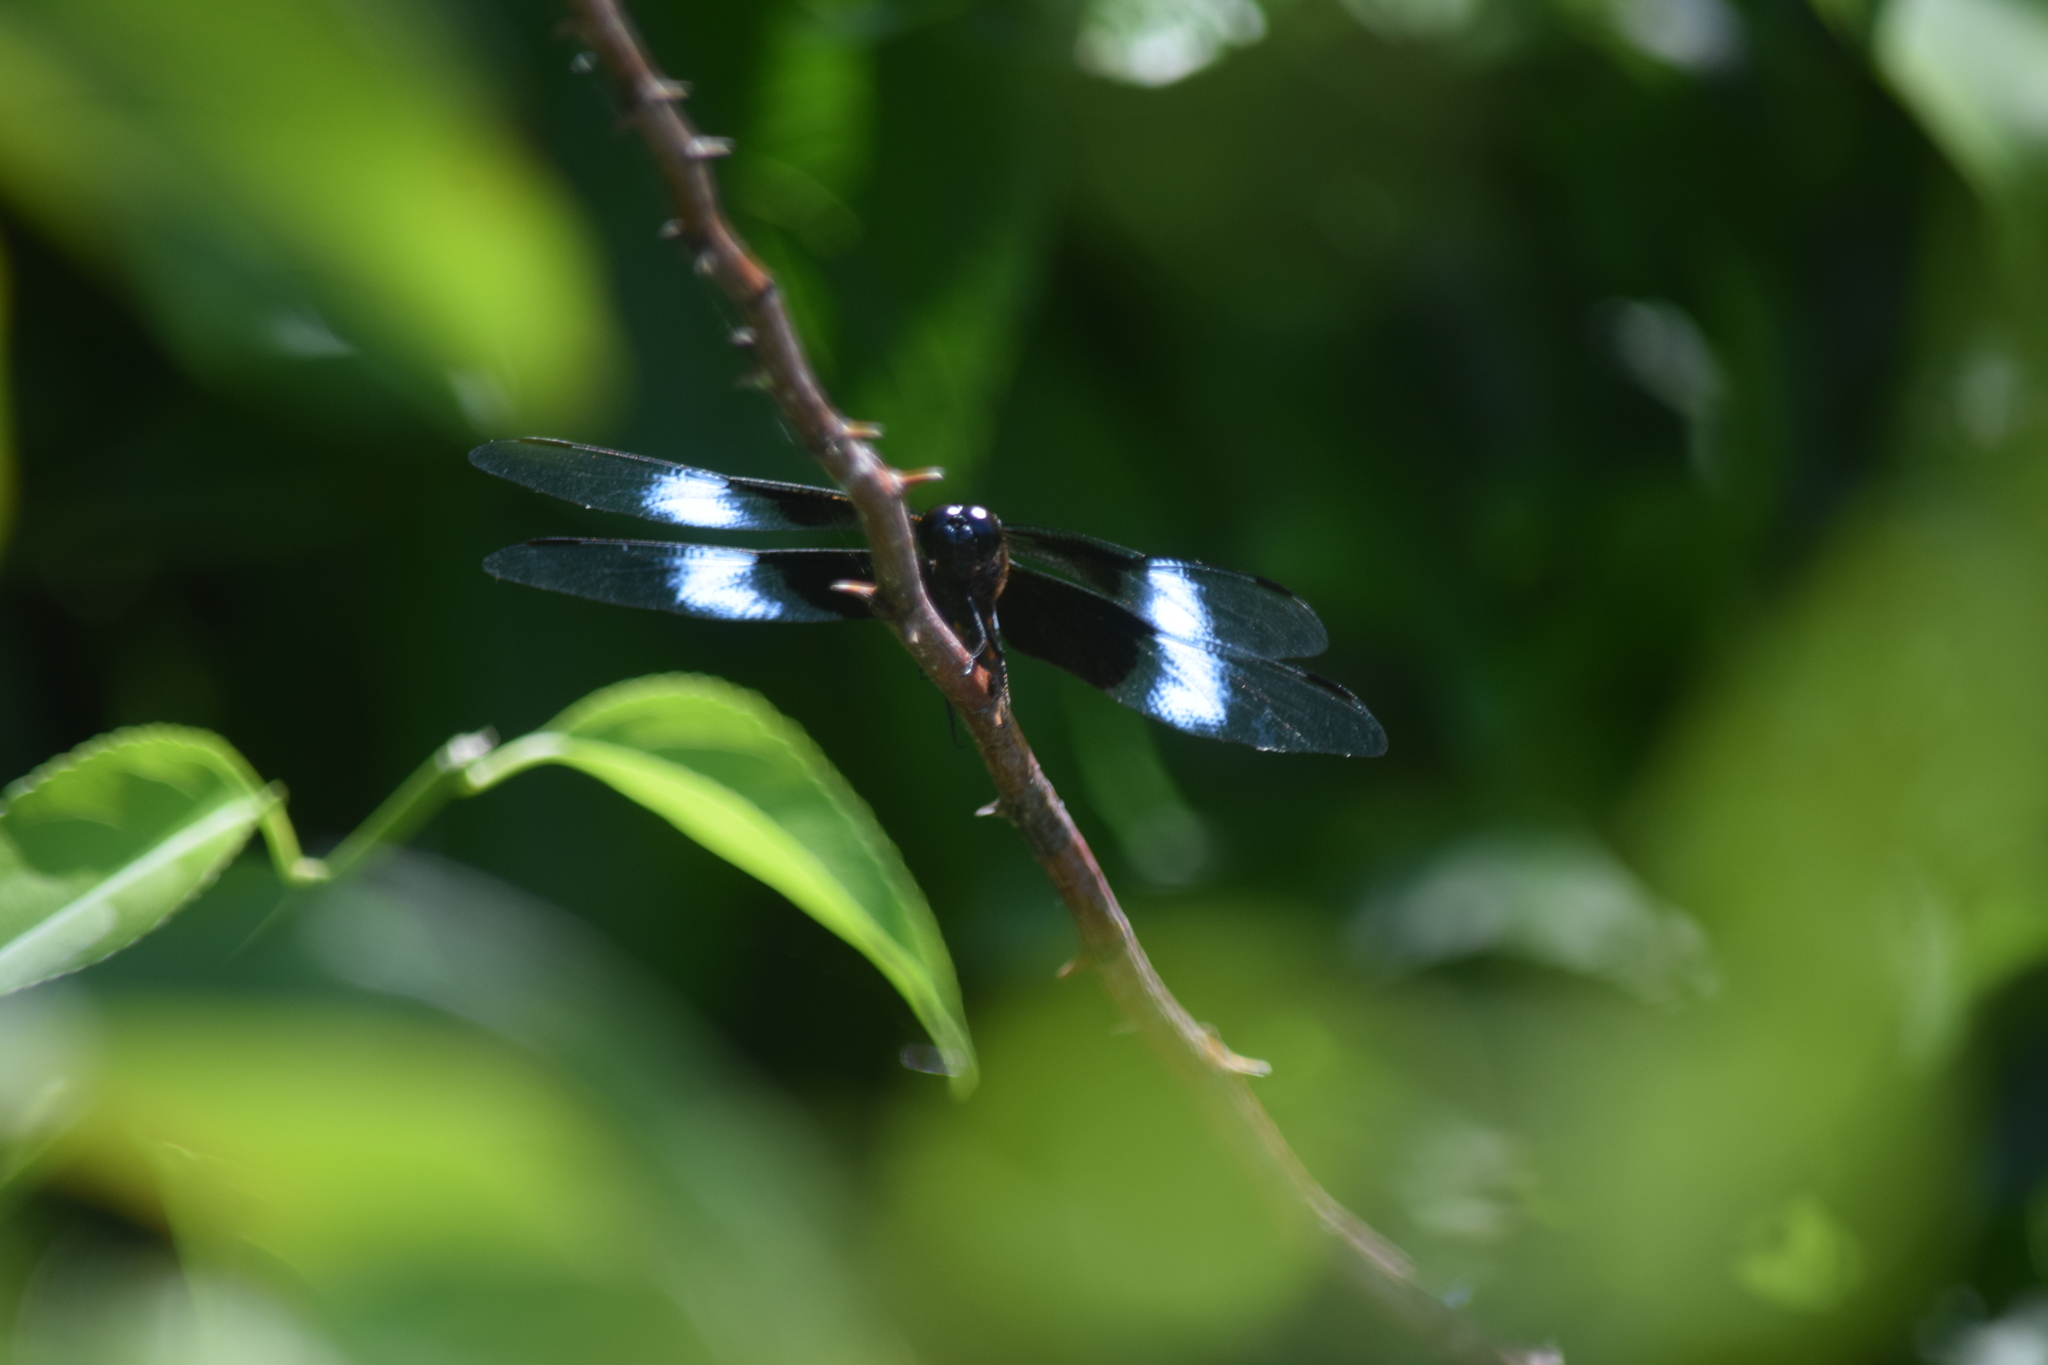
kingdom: Animalia
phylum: Arthropoda
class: Insecta
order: Odonata
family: Libellulidae
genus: Libellula
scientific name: Libellula luctuosa
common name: Widow skimmer
